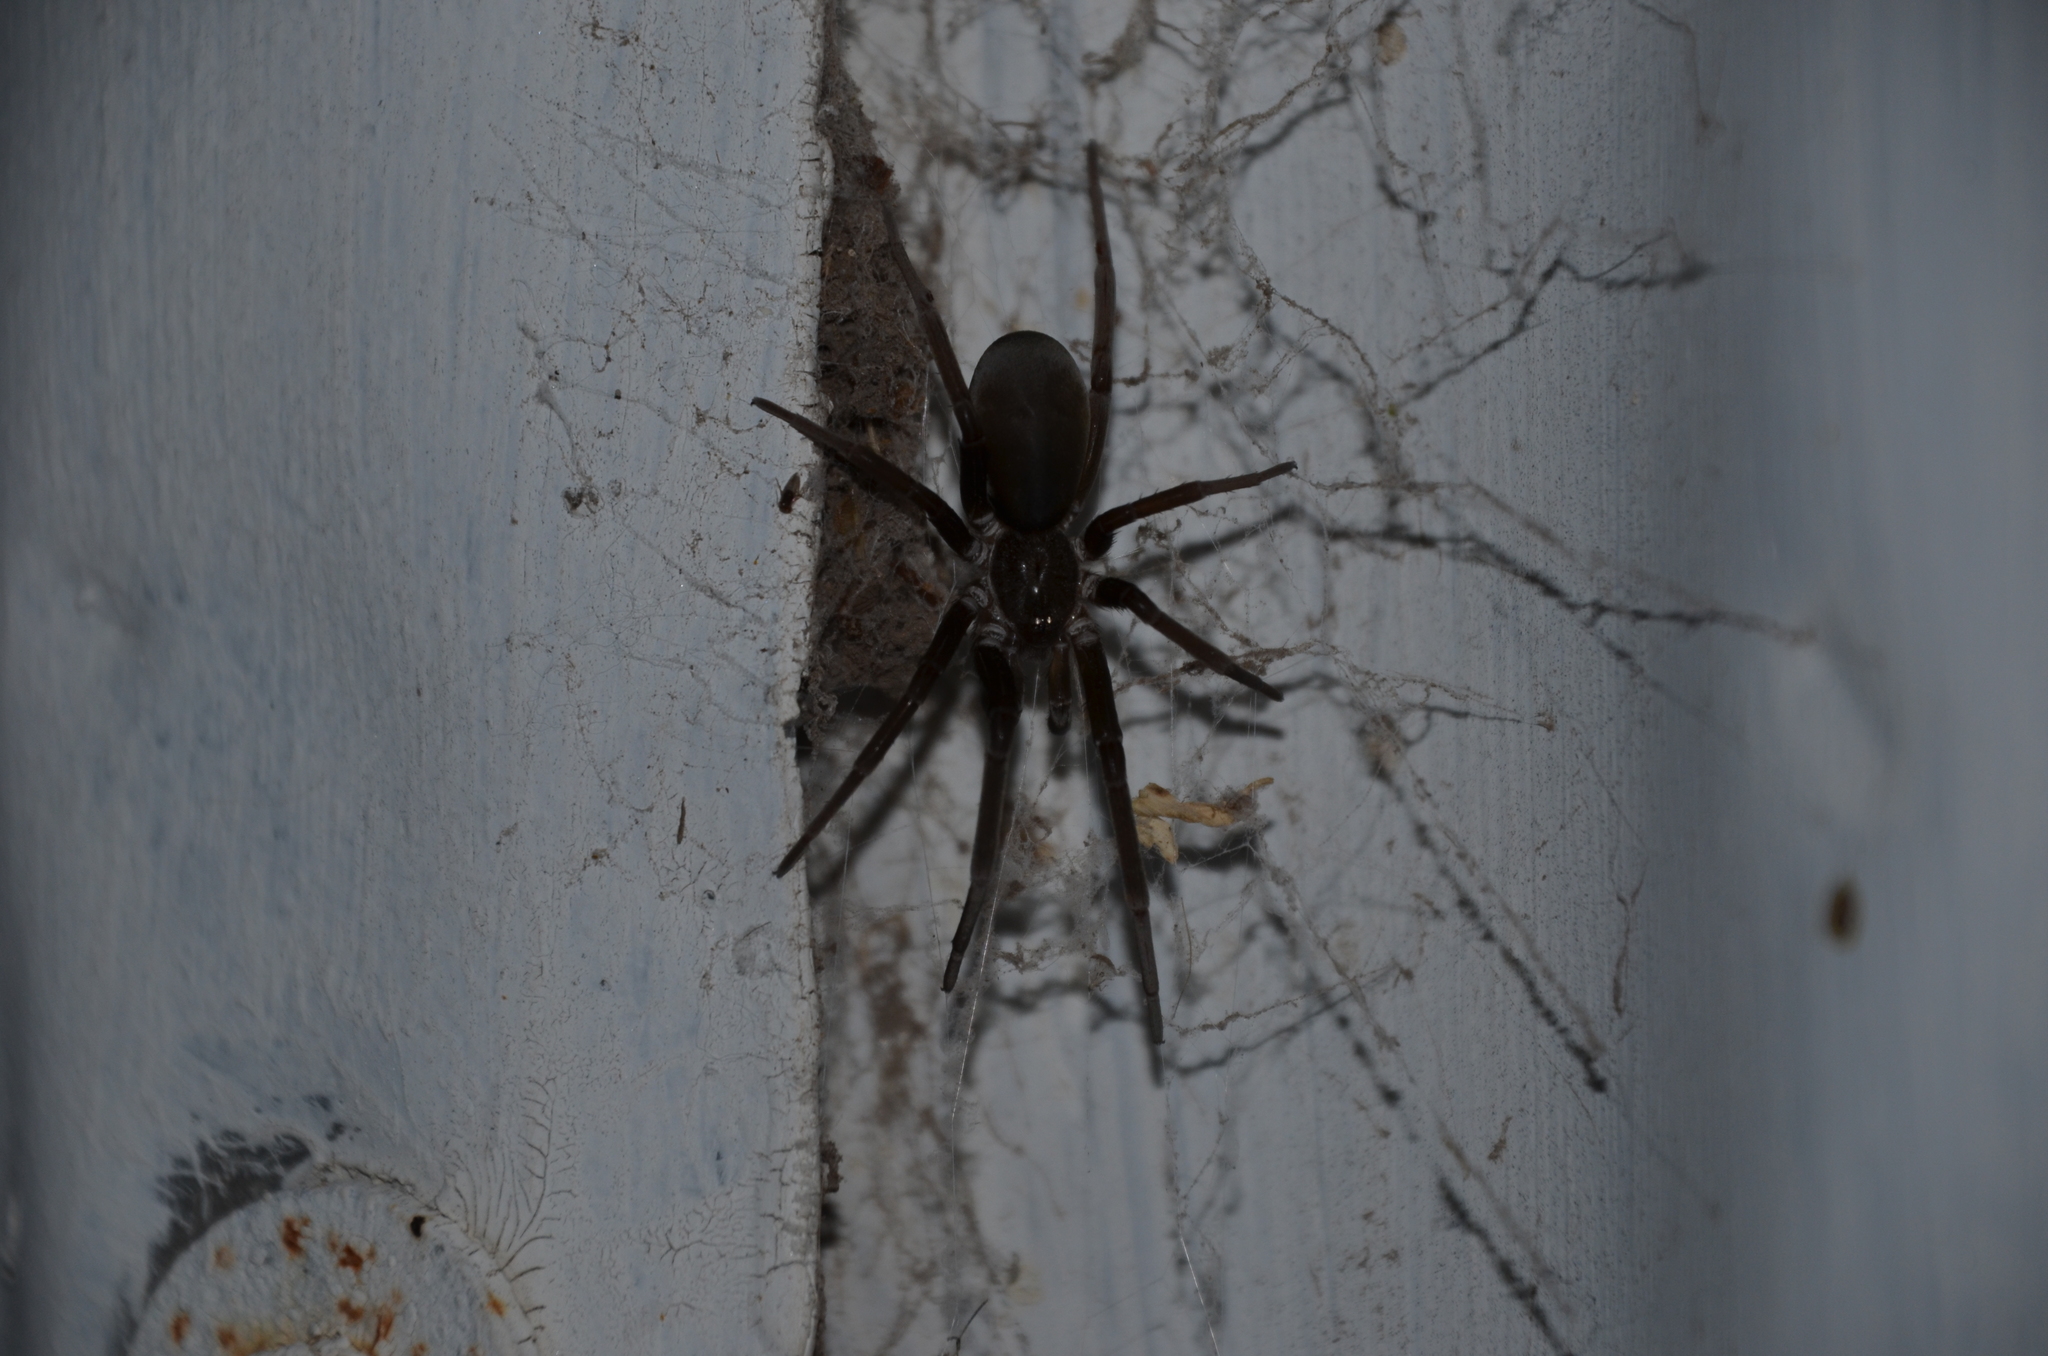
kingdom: Animalia
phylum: Arthropoda
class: Arachnida
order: Araneae
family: Filistatidae
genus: Kukulcania
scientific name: Kukulcania hibernalis
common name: Crevice weaver
